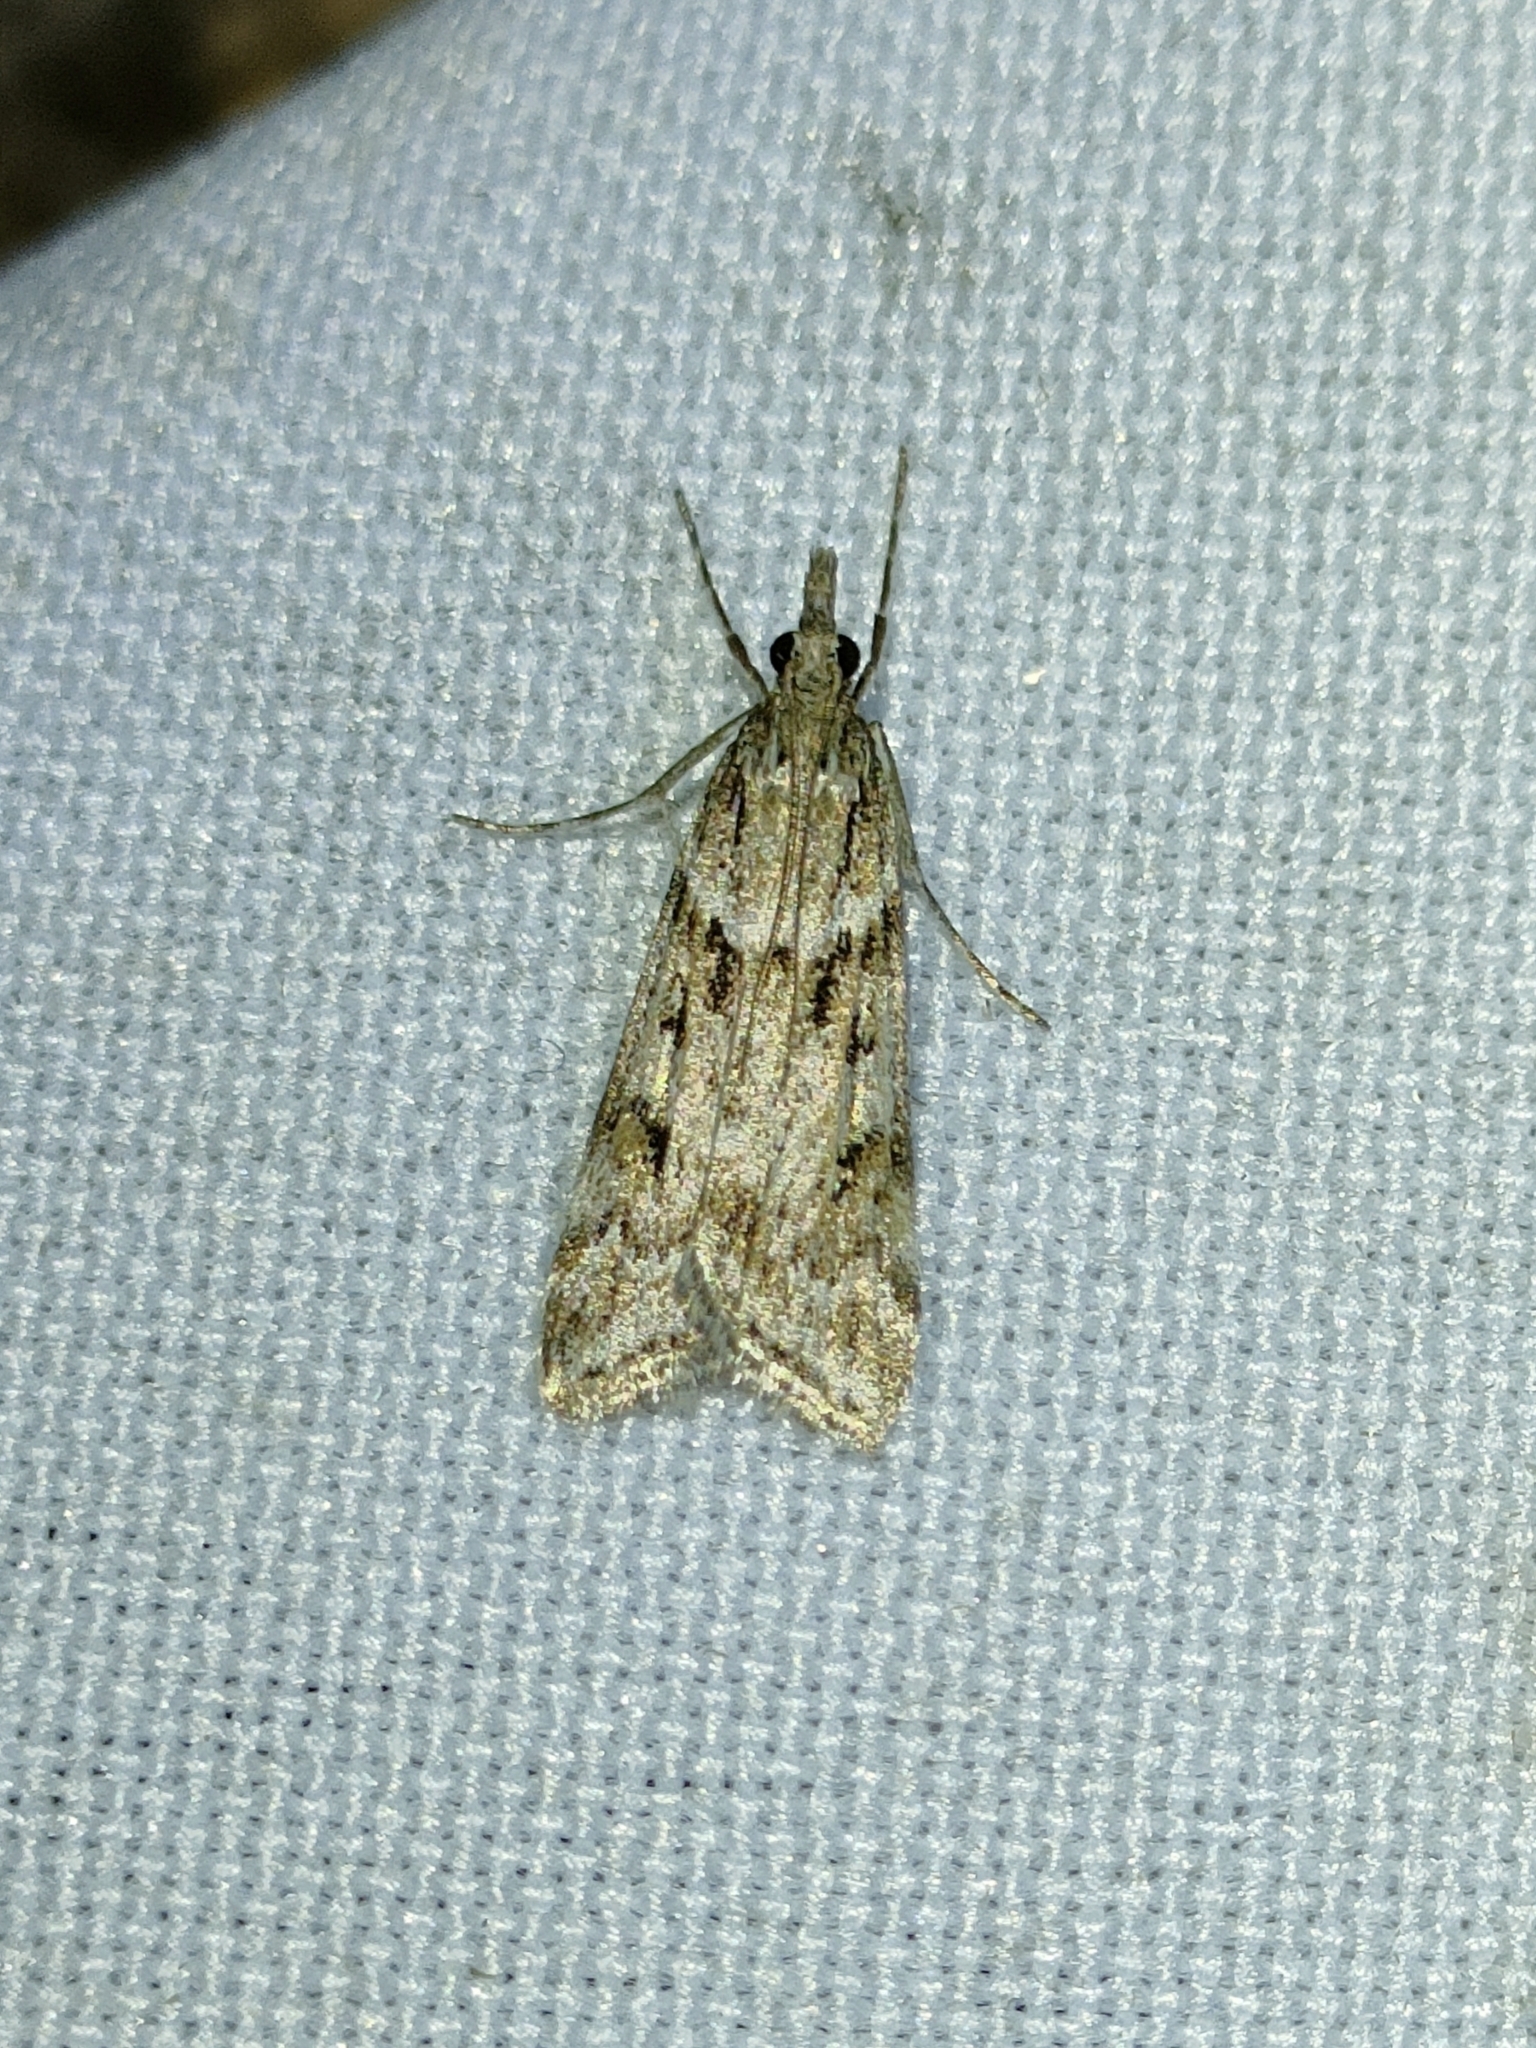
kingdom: Animalia
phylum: Arthropoda
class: Insecta
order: Lepidoptera
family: Crambidae
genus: Eudonia
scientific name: Eudonia angustea
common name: Narrow-winged grey
